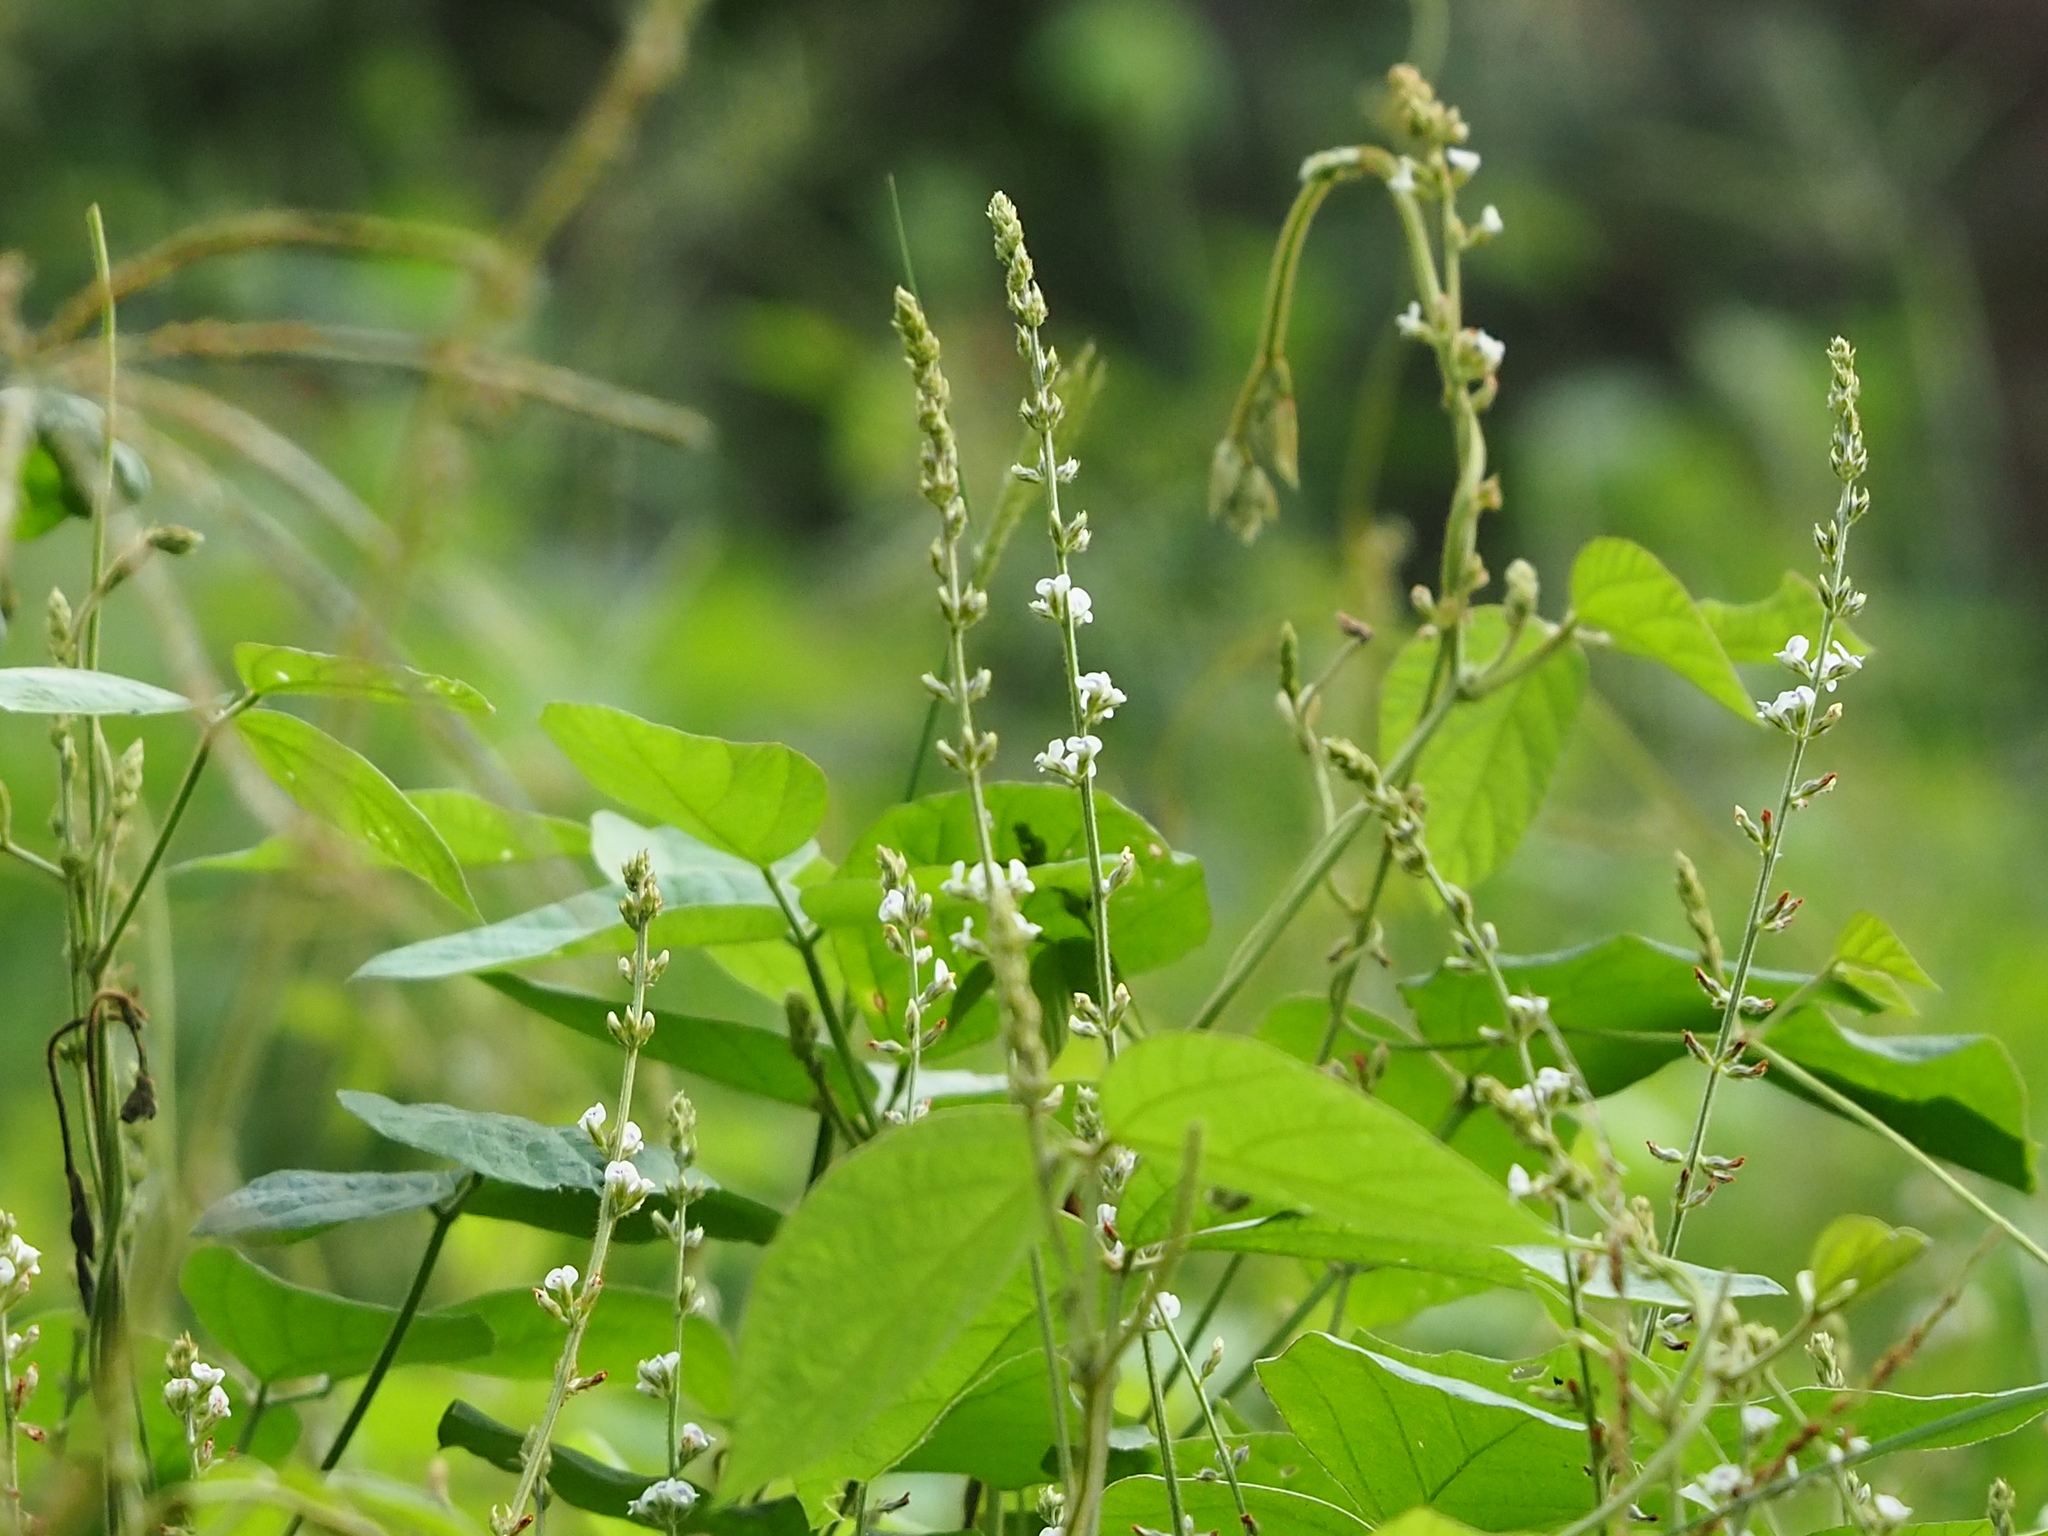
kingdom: Plantae
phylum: Tracheophyta
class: Magnoliopsida
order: Fabales
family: Fabaceae
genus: Neonotonia
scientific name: Neonotonia wightii
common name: Perennial soybean
